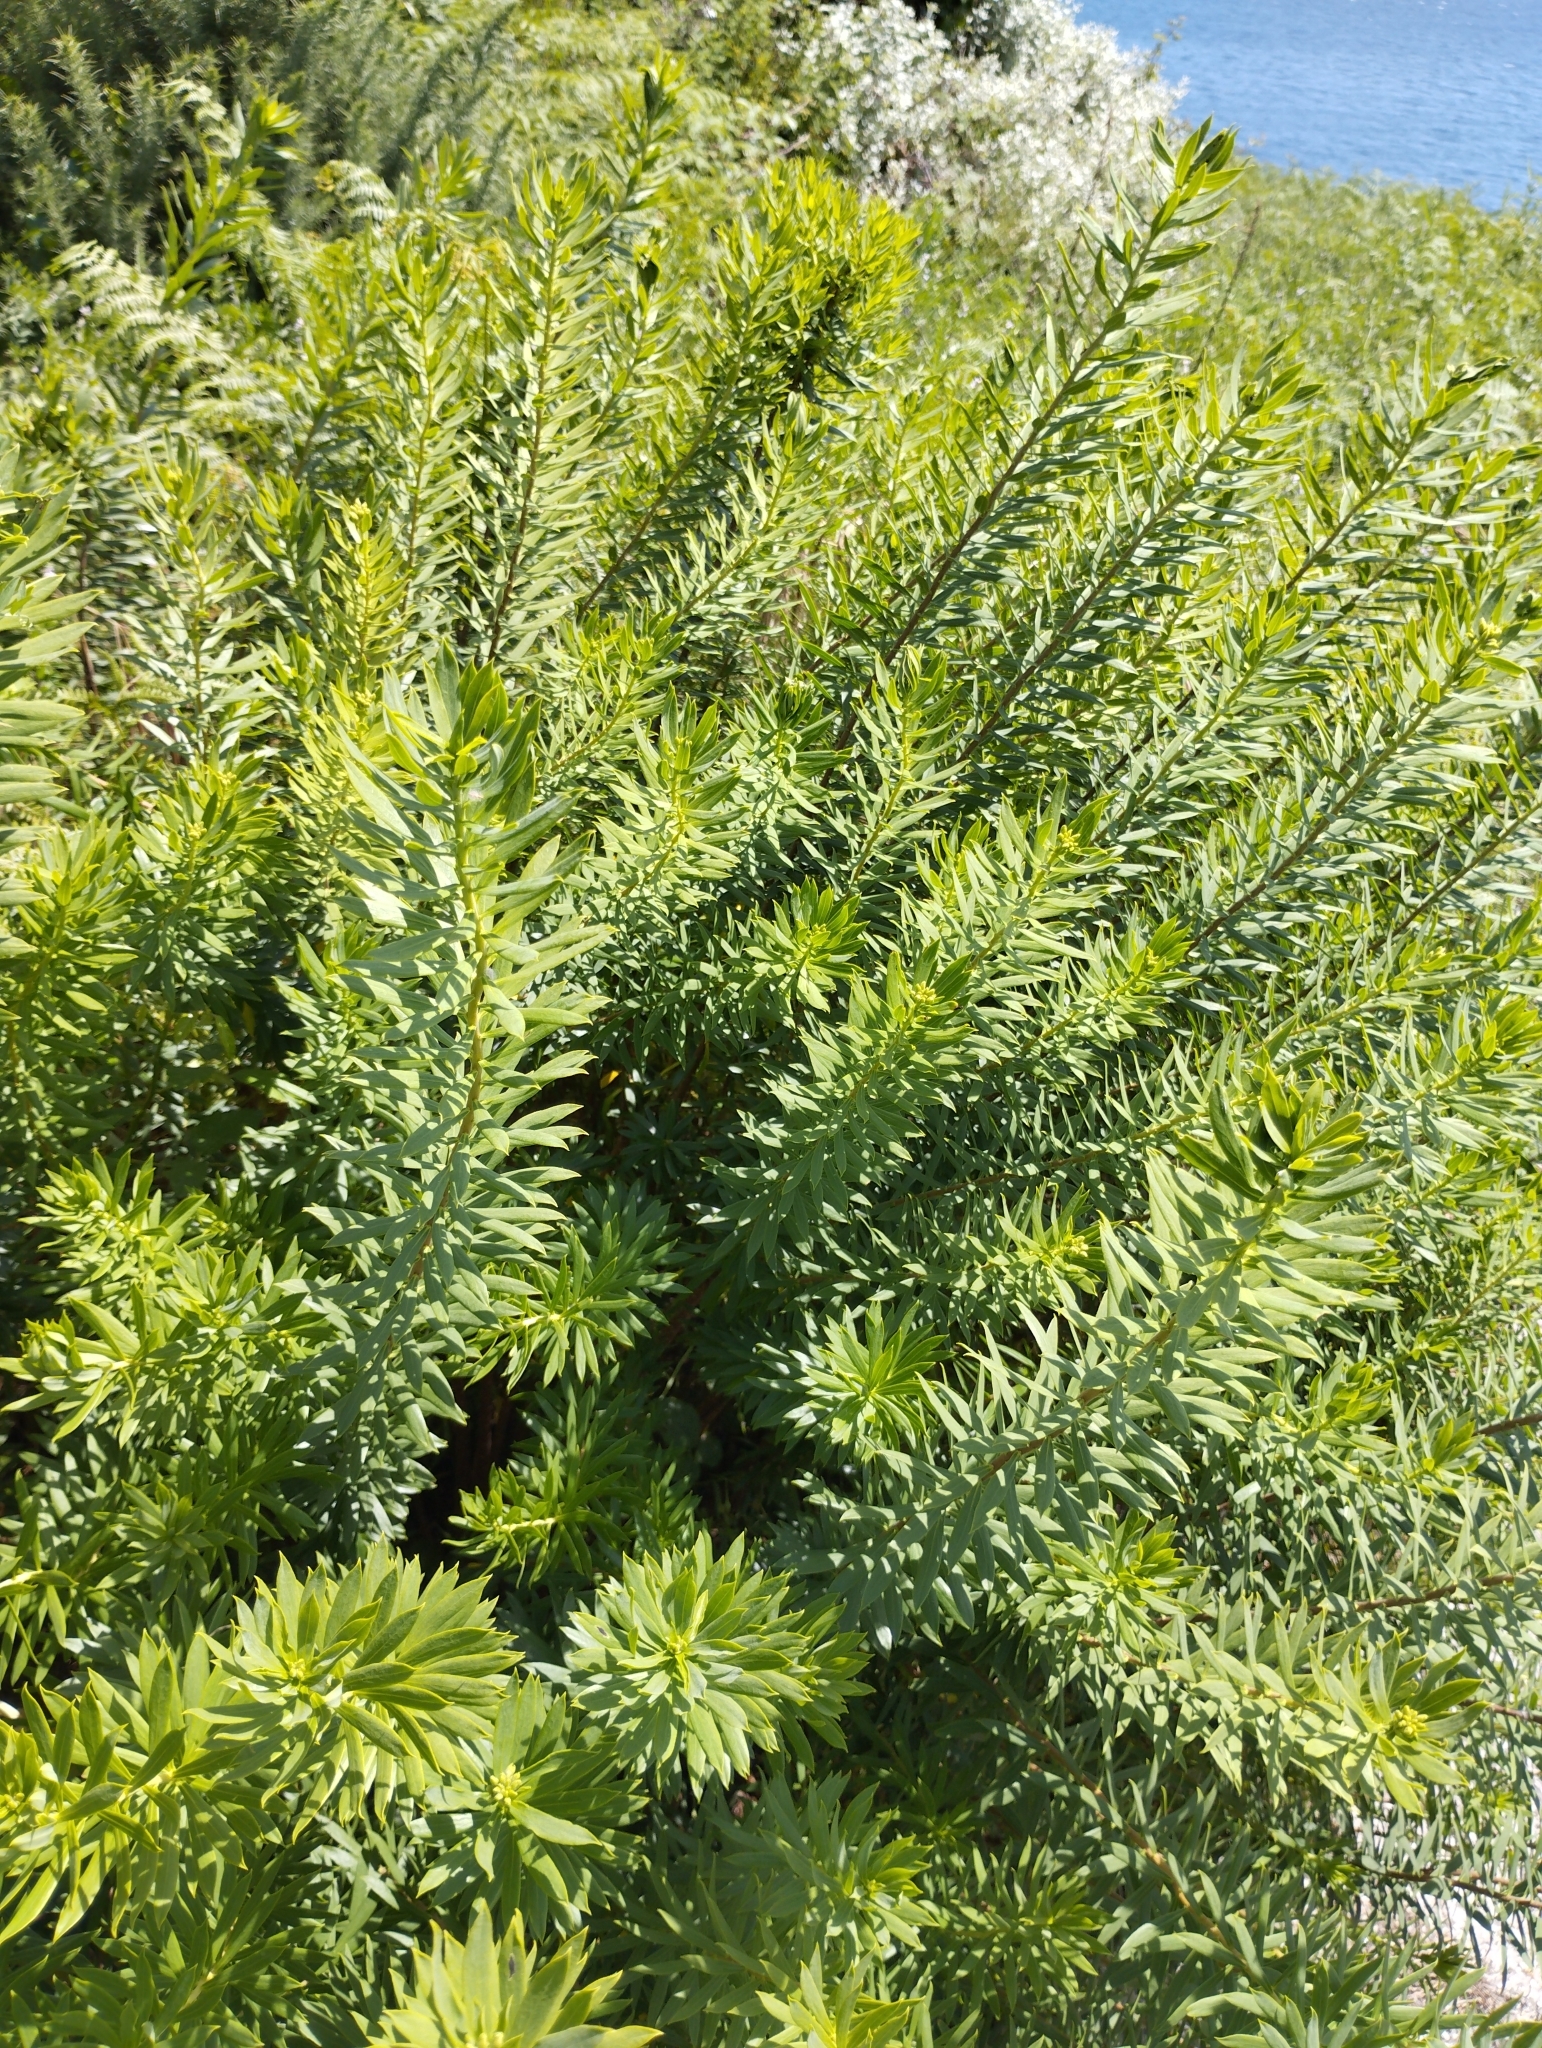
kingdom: Plantae
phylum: Tracheophyta
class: Magnoliopsida
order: Malvales
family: Thymelaeaceae
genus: Daphne
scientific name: Daphne gnidium
